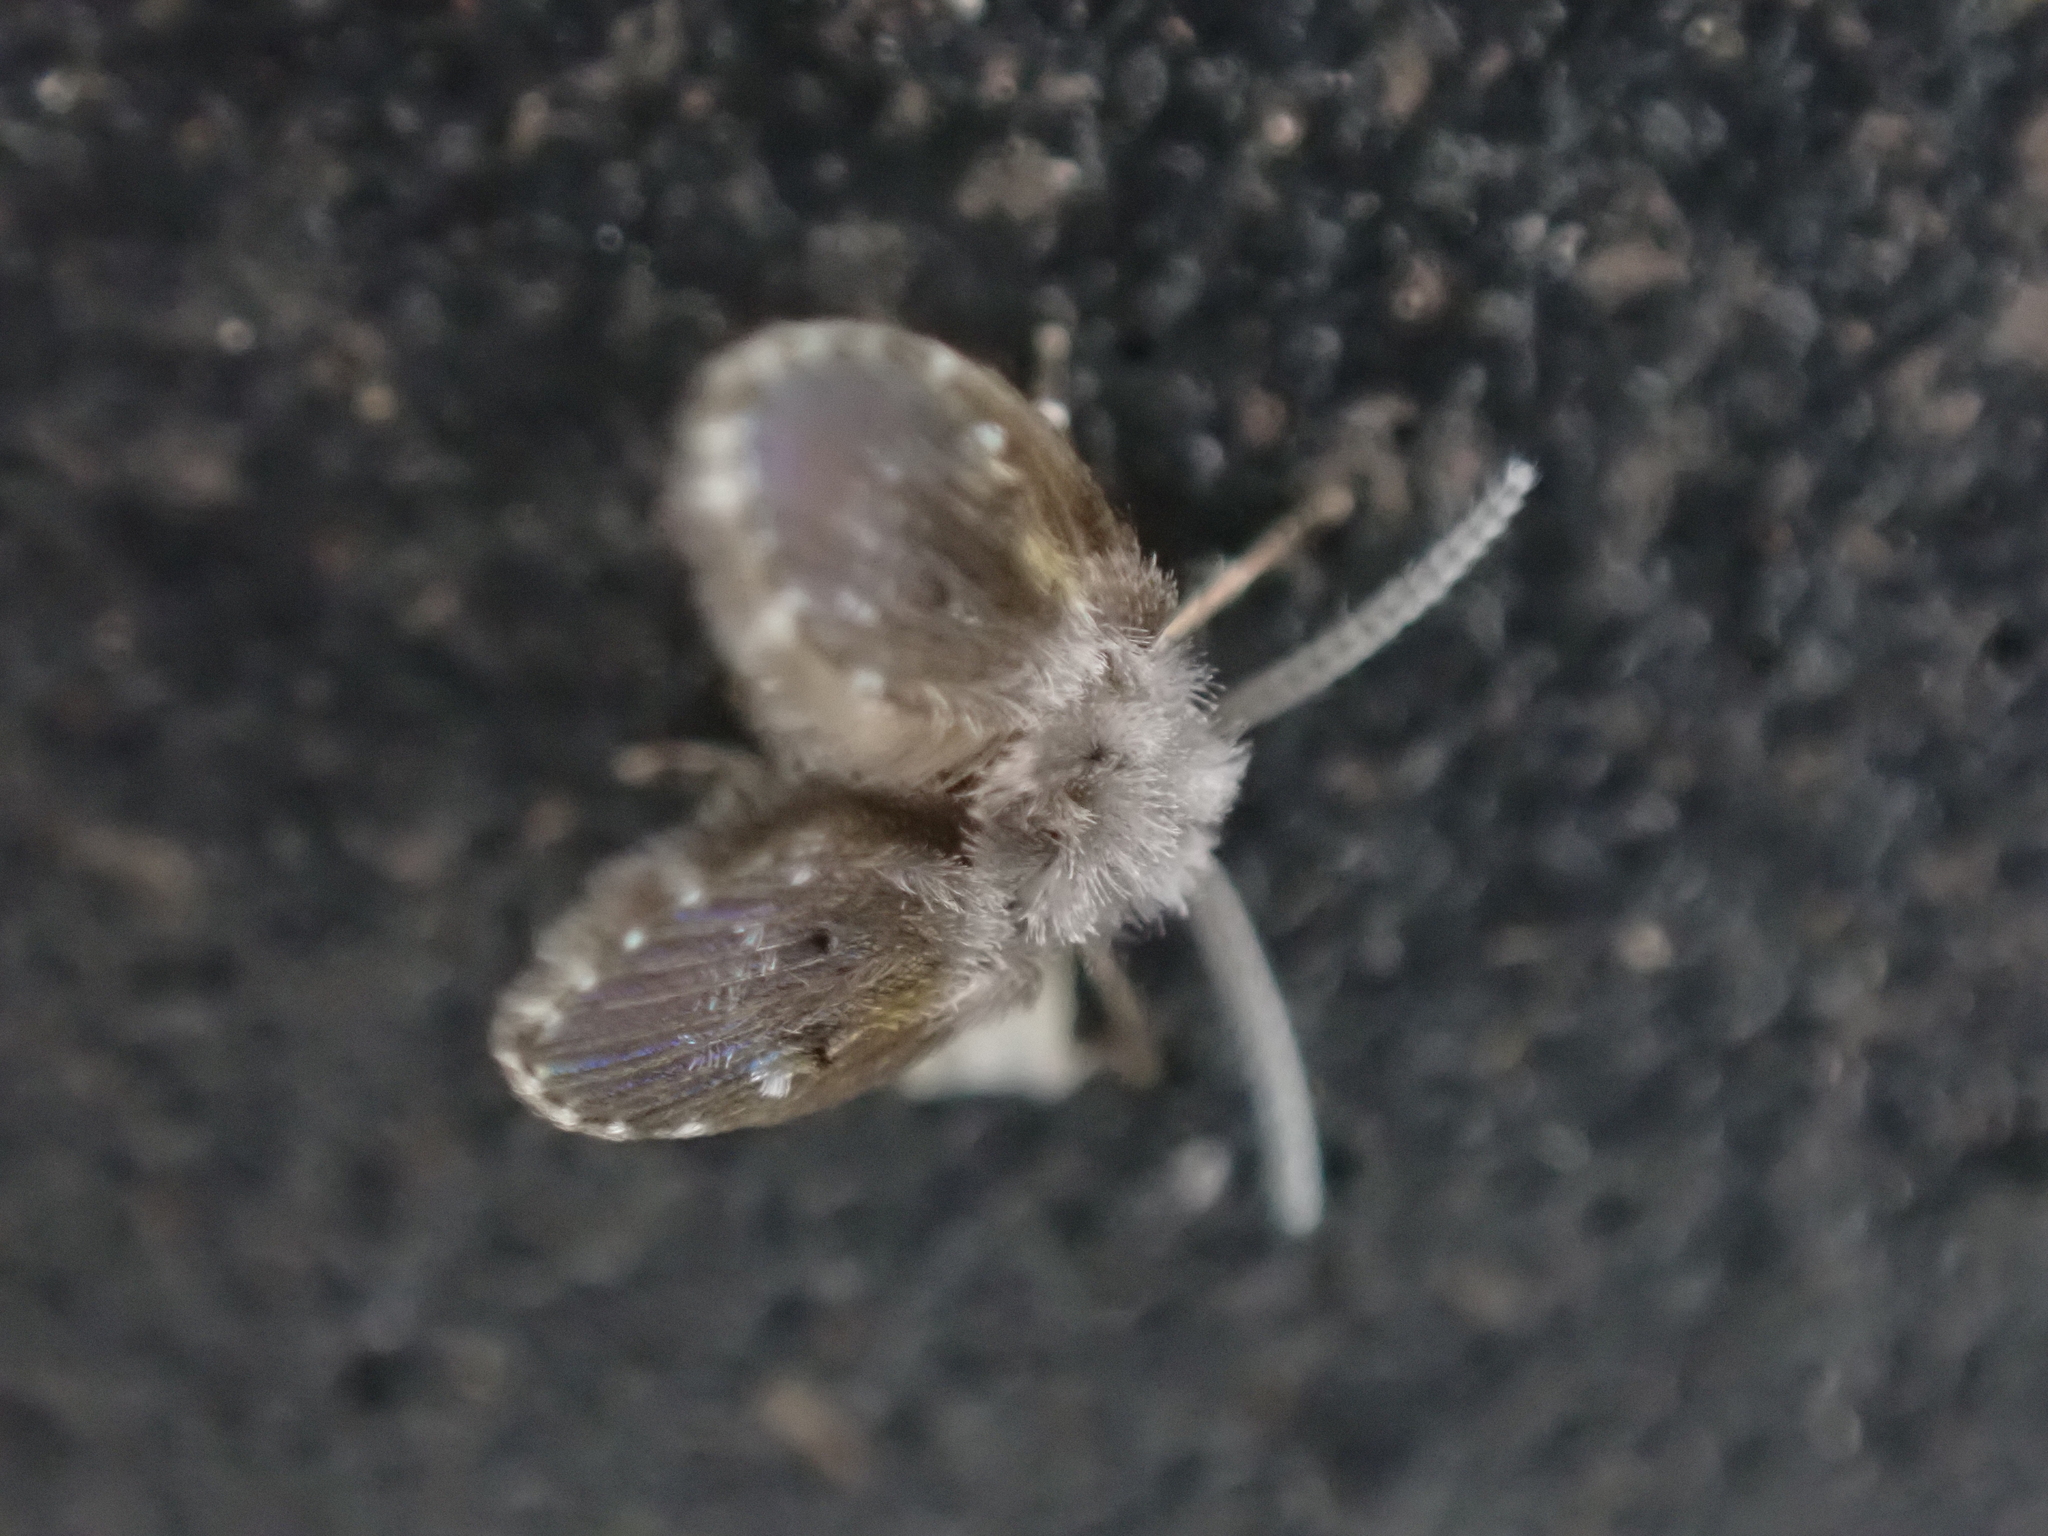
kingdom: Animalia
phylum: Arthropoda
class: Insecta
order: Diptera
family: Psychodidae
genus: Clogmia
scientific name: Clogmia albipunctatus
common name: White-spotted moth fly
